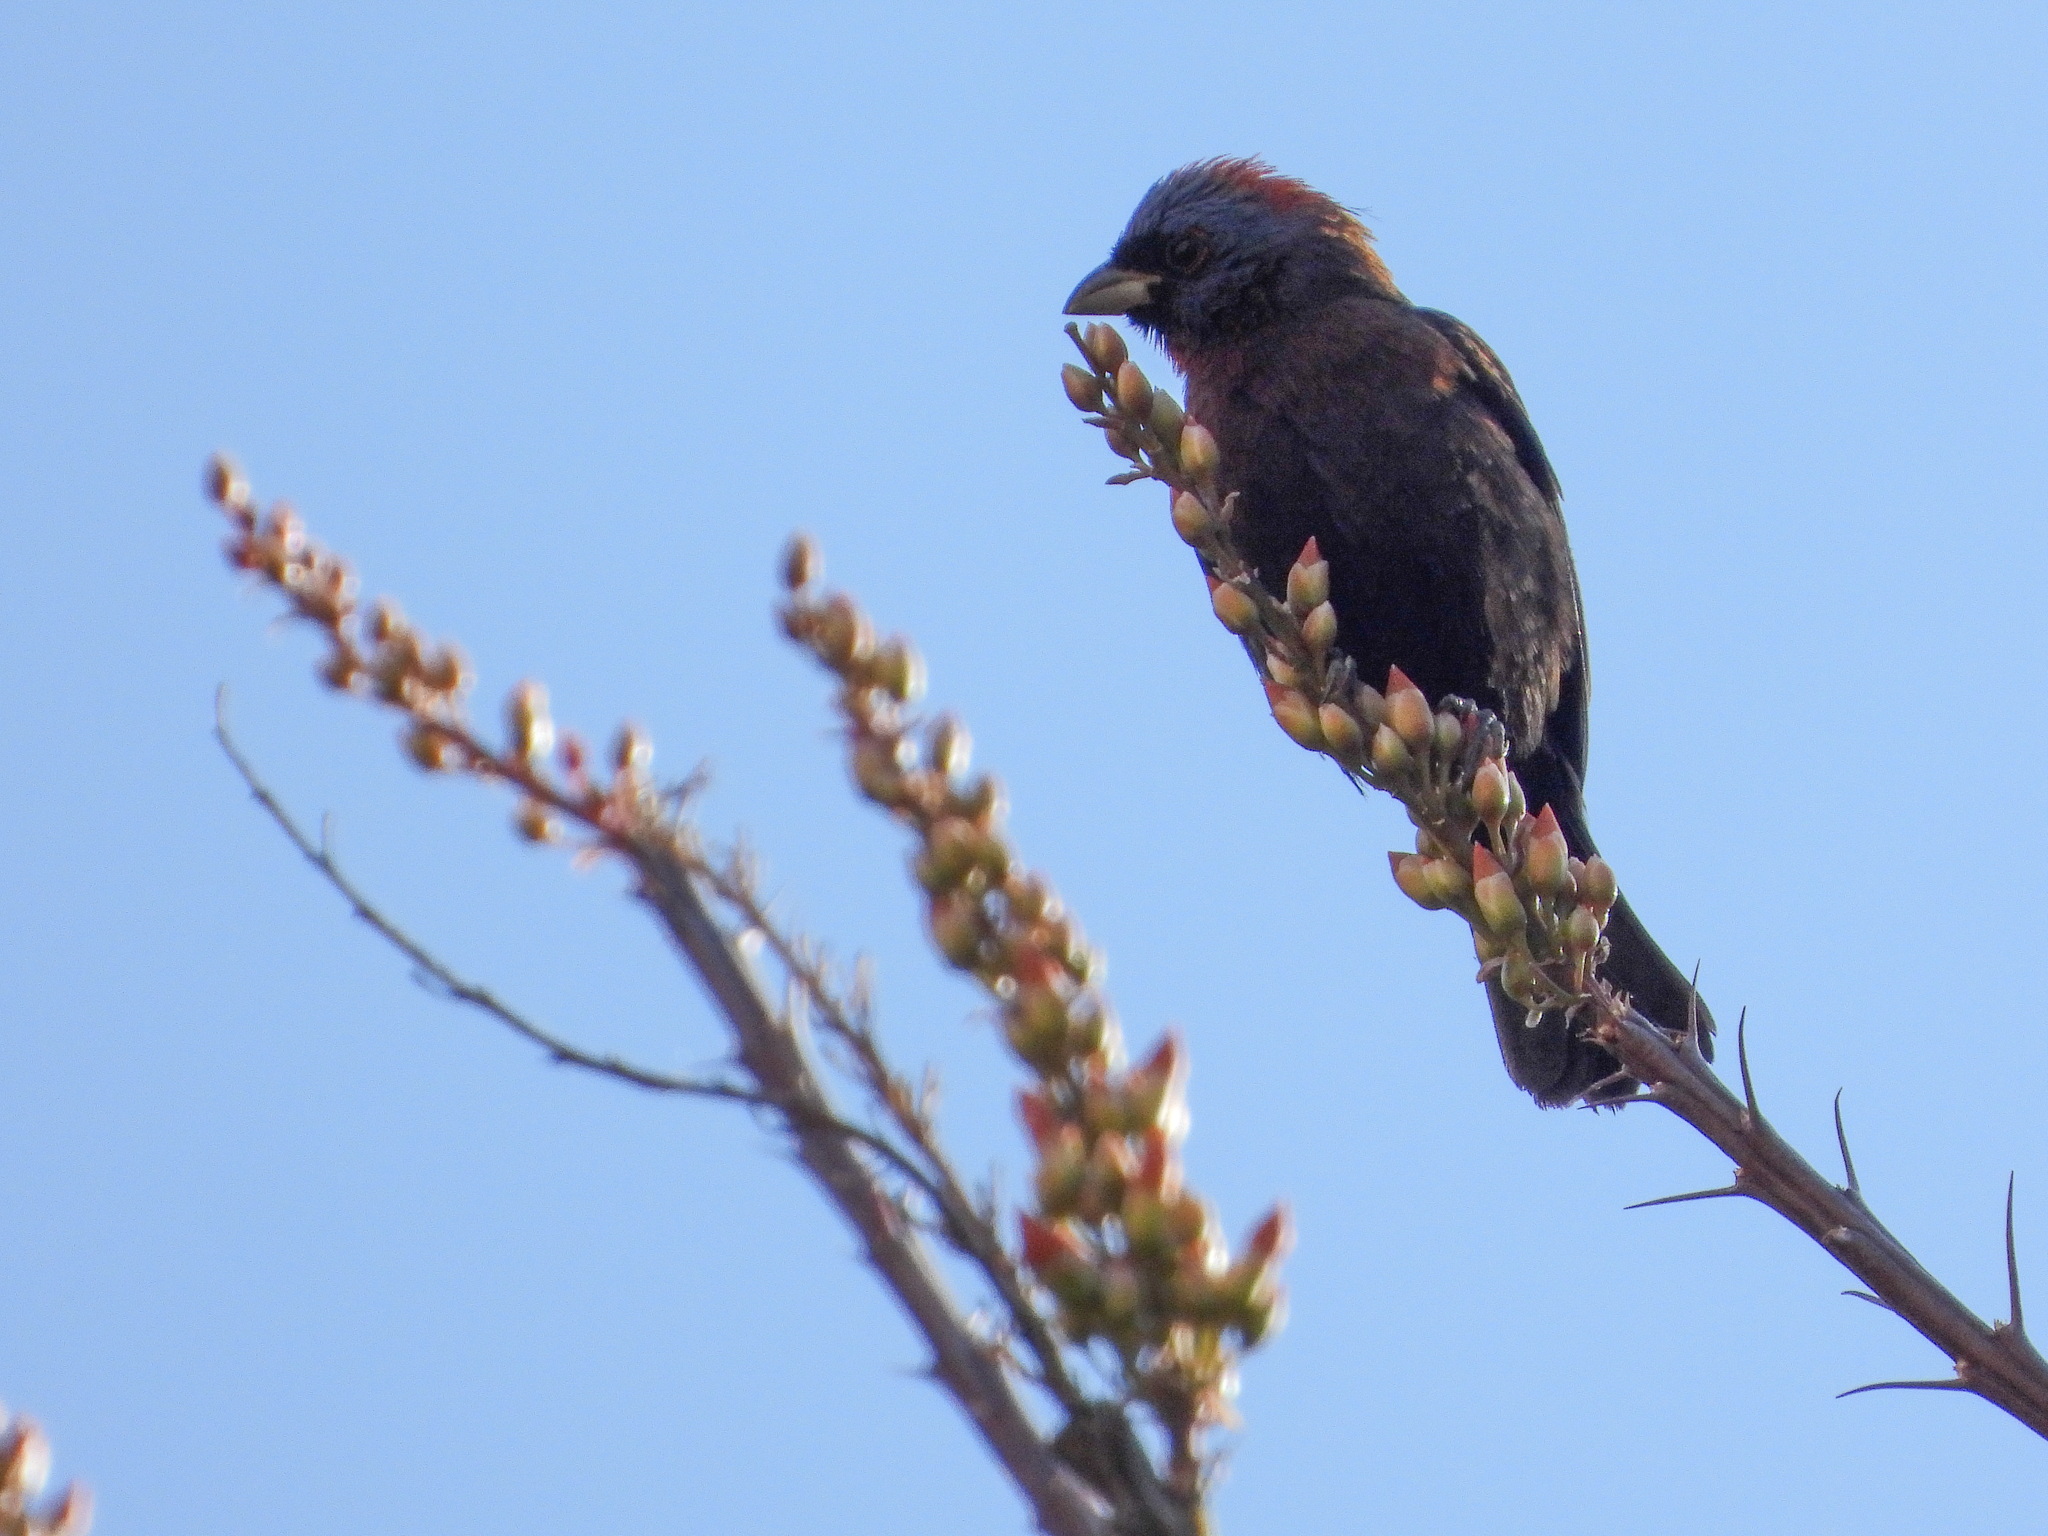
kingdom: Animalia
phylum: Chordata
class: Aves
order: Passeriformes
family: Cardinalidae
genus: Passerina
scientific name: Passerina versicolor
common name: Varied bunting
